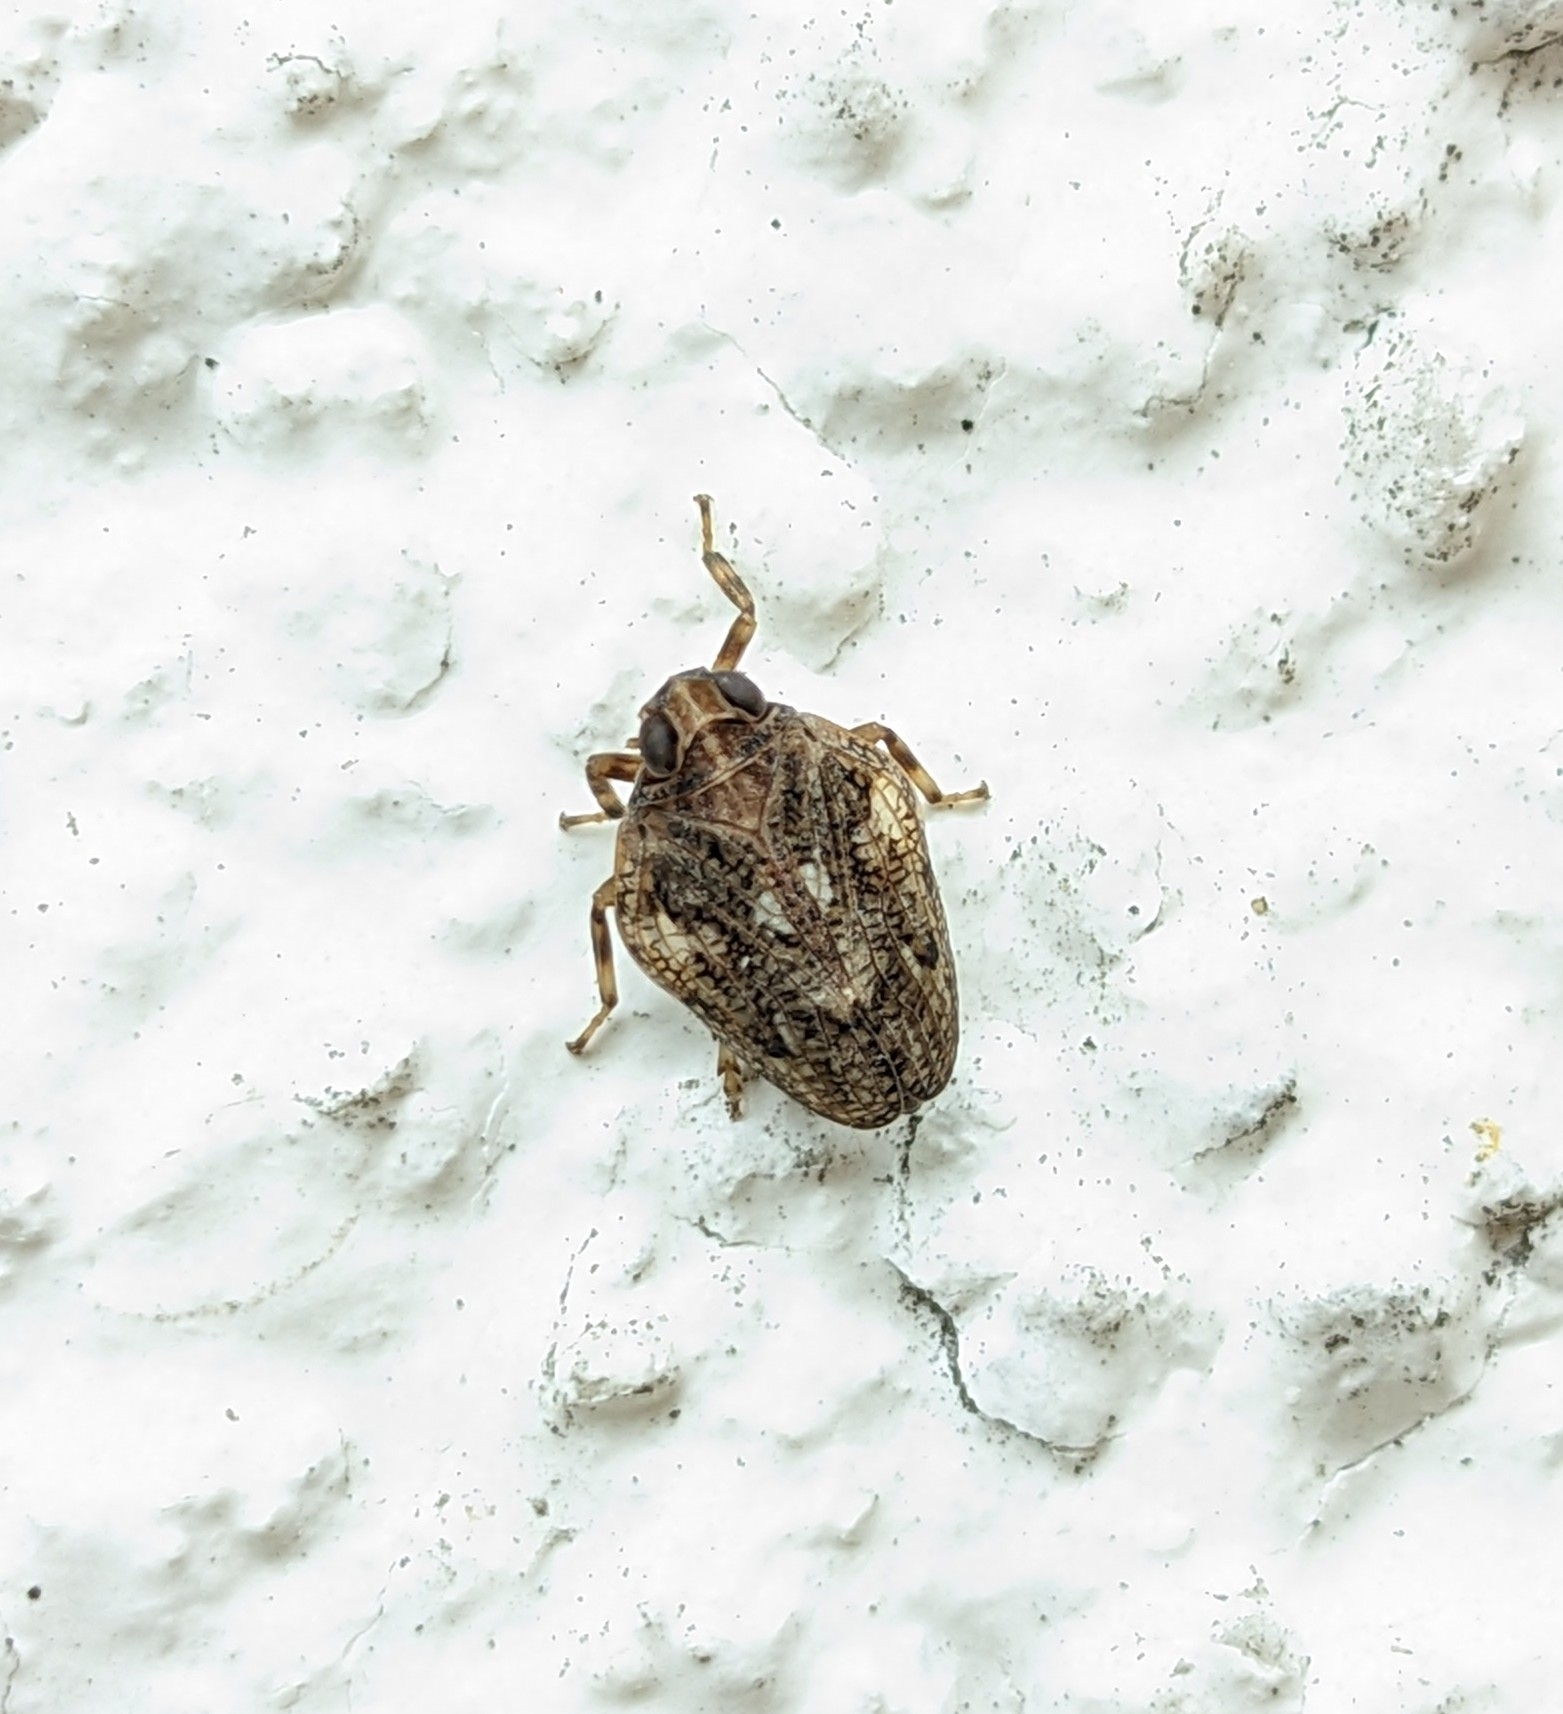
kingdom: Animalia
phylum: Arthropoda
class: Insecta
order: Hemiptera
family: Issidae
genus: Issus
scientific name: Issus coleoptratus
